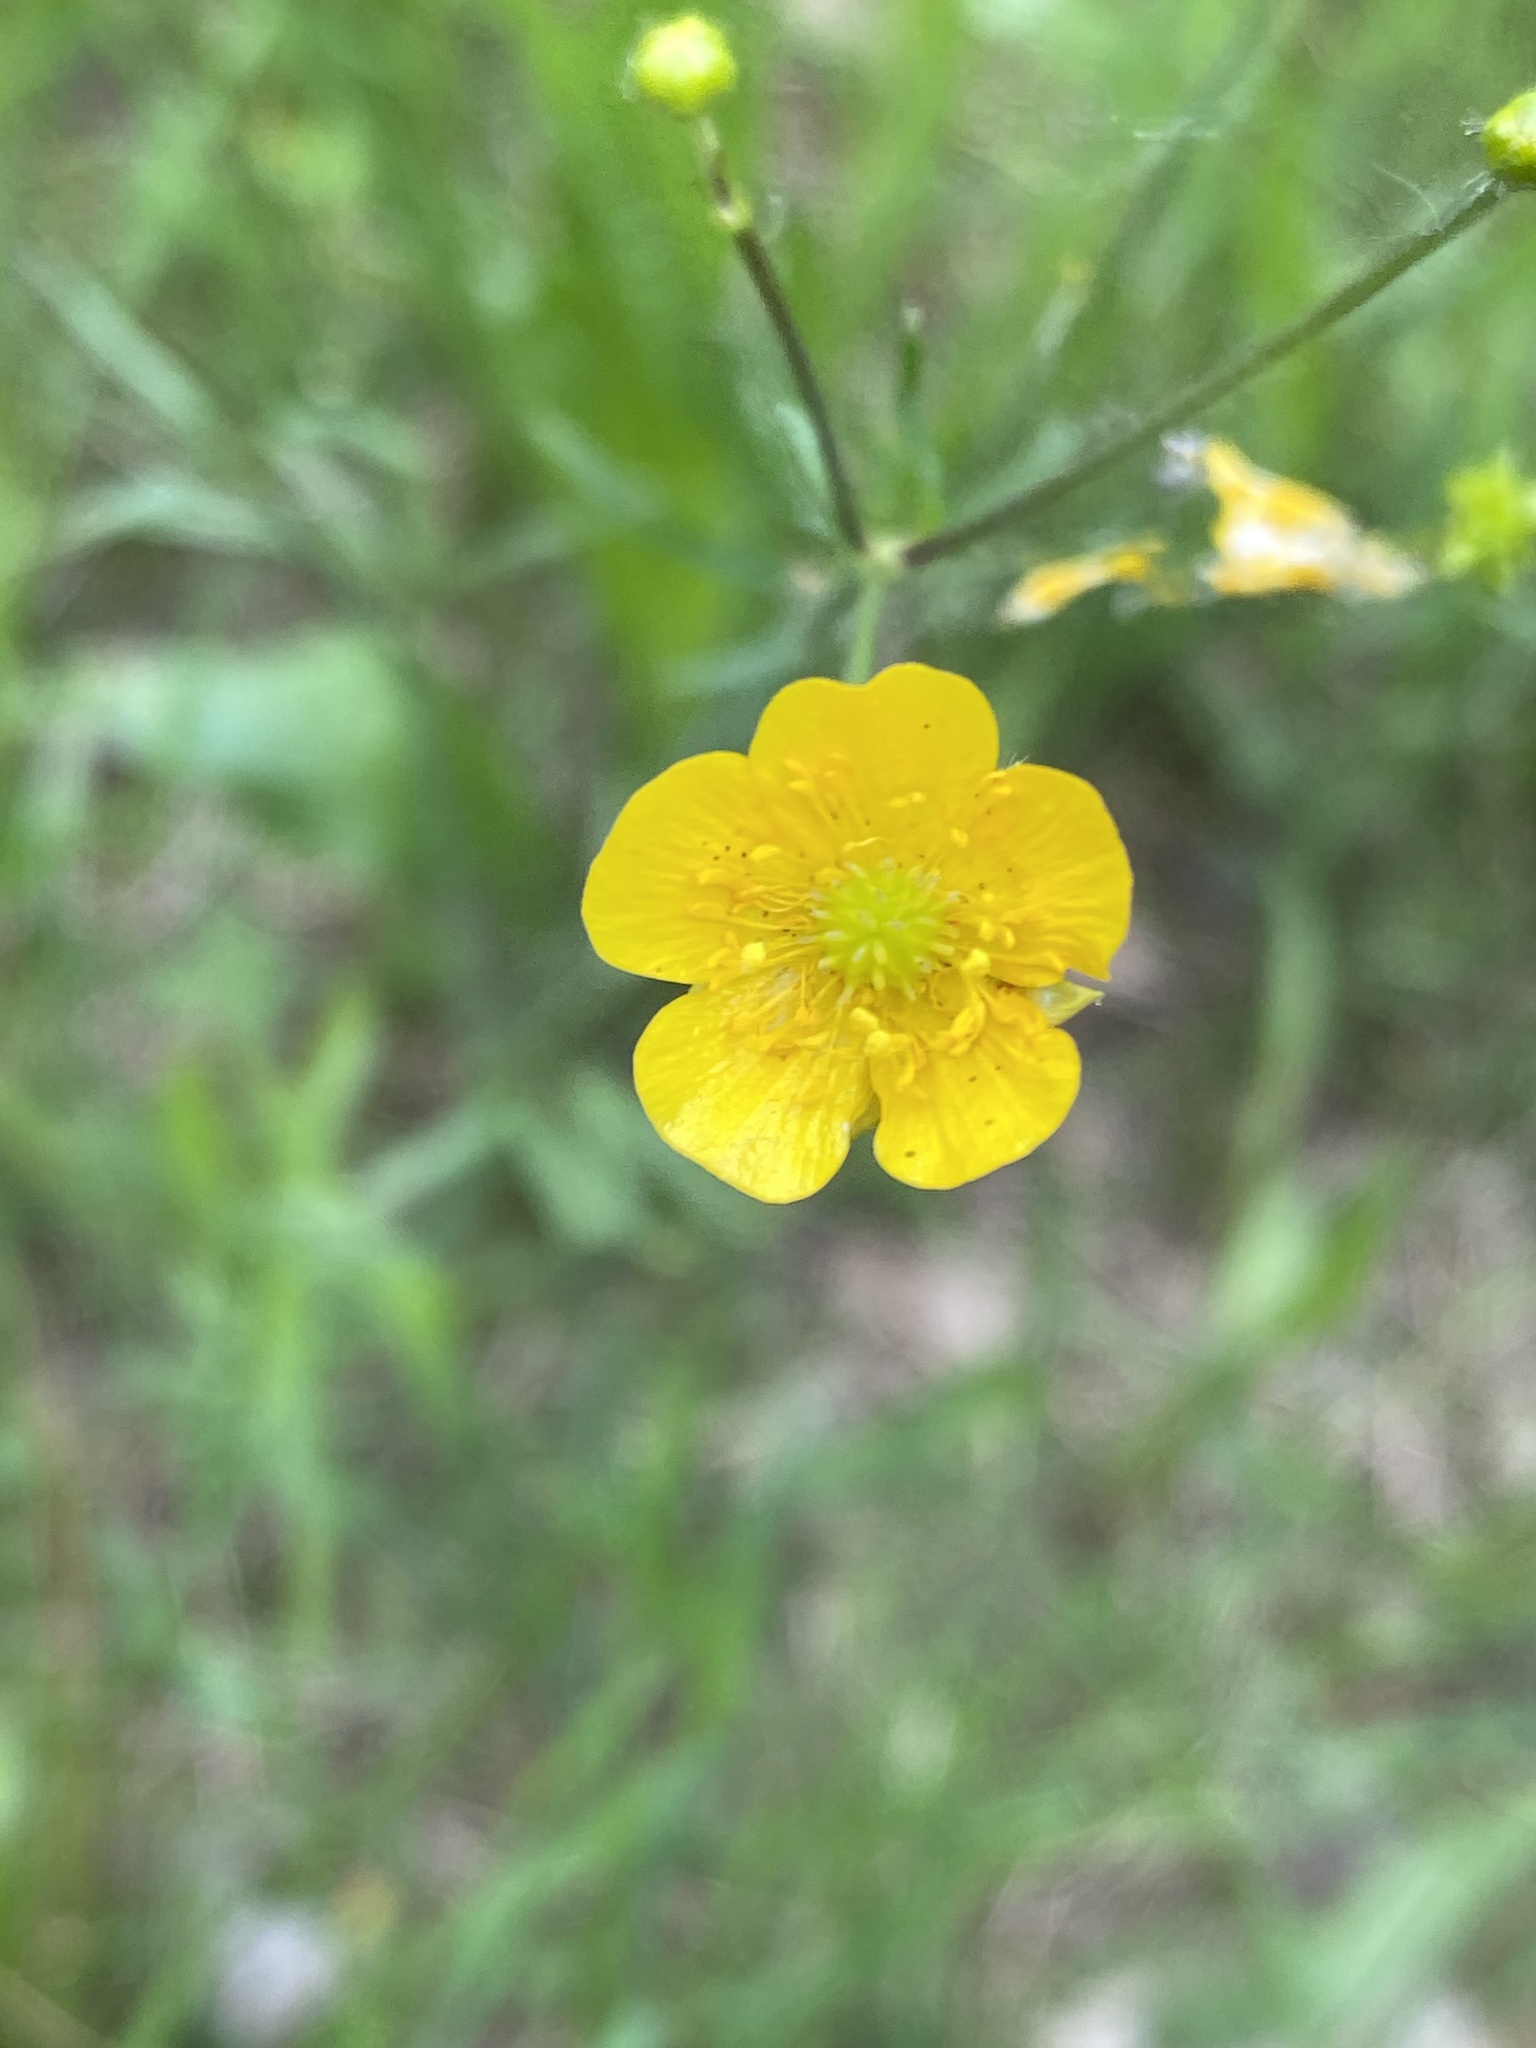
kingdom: Plantae
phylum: Tracheophyta
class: Magnoliopsida
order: Ranunculales
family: Ranunculaceae
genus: Ranunculus
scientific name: Ranunculus acris
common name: Meadow buttercup
